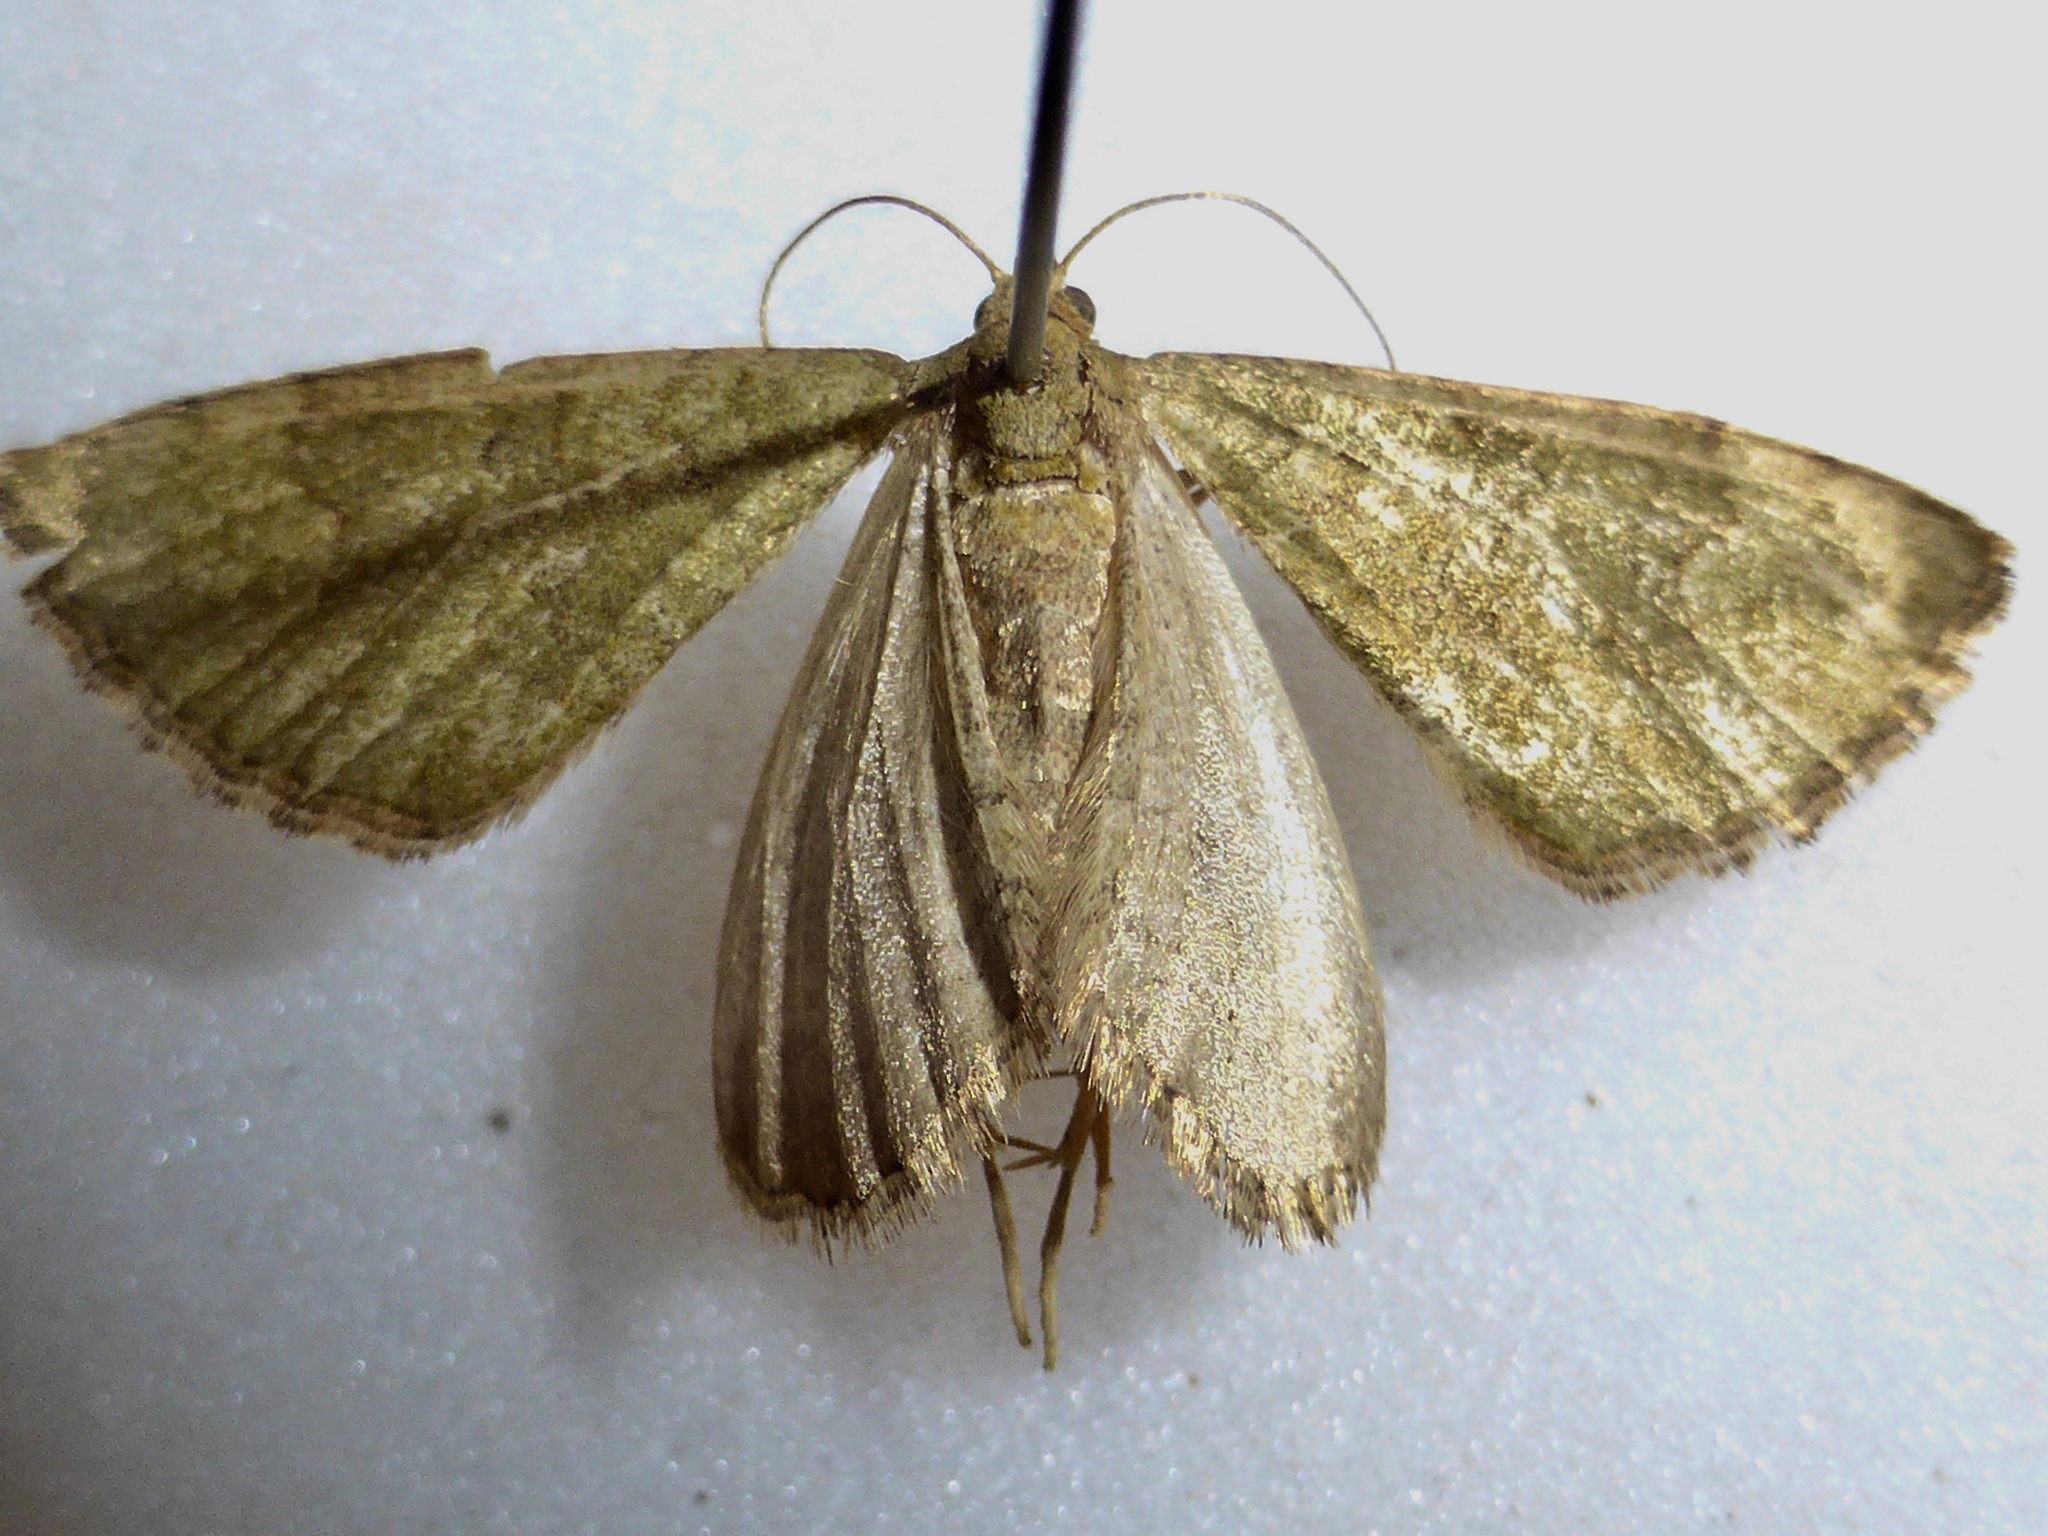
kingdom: Animalia
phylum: Arthropoda
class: Insecta
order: Lepidoptera
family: Geometridae
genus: Epyaxa
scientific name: Epyaxa rosearia
